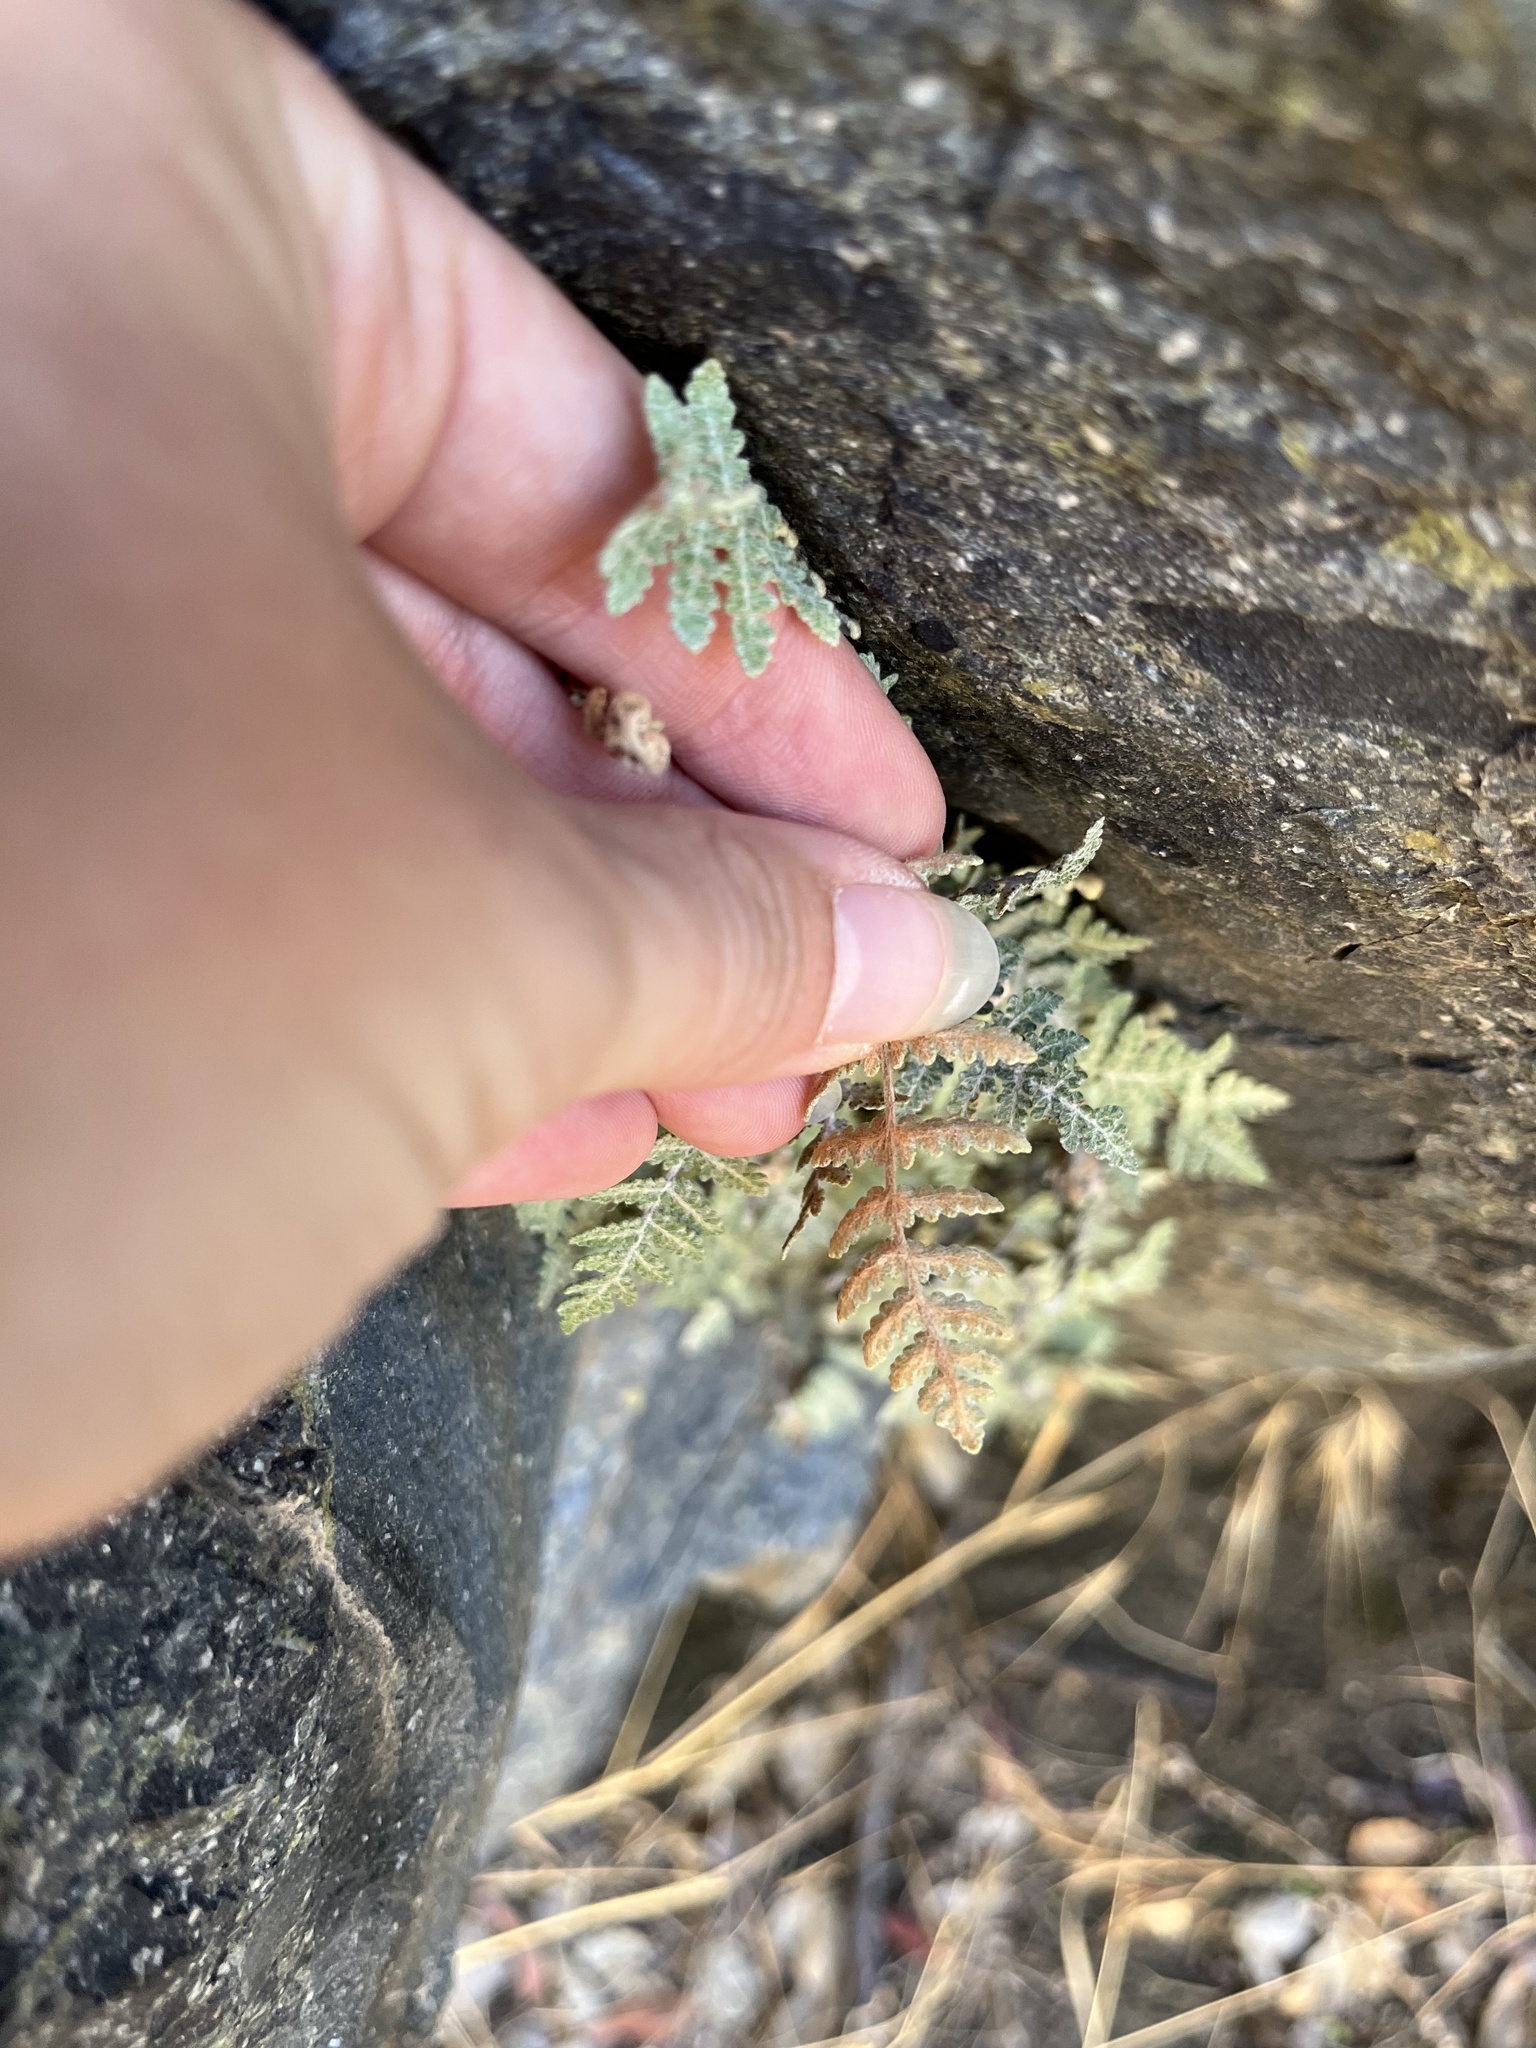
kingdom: Plantae
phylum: Tracheophyta
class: Polypodiopsida
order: Polypodiales
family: Pteridaceae
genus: Myriopteris
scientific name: Myriopteris newberryi
